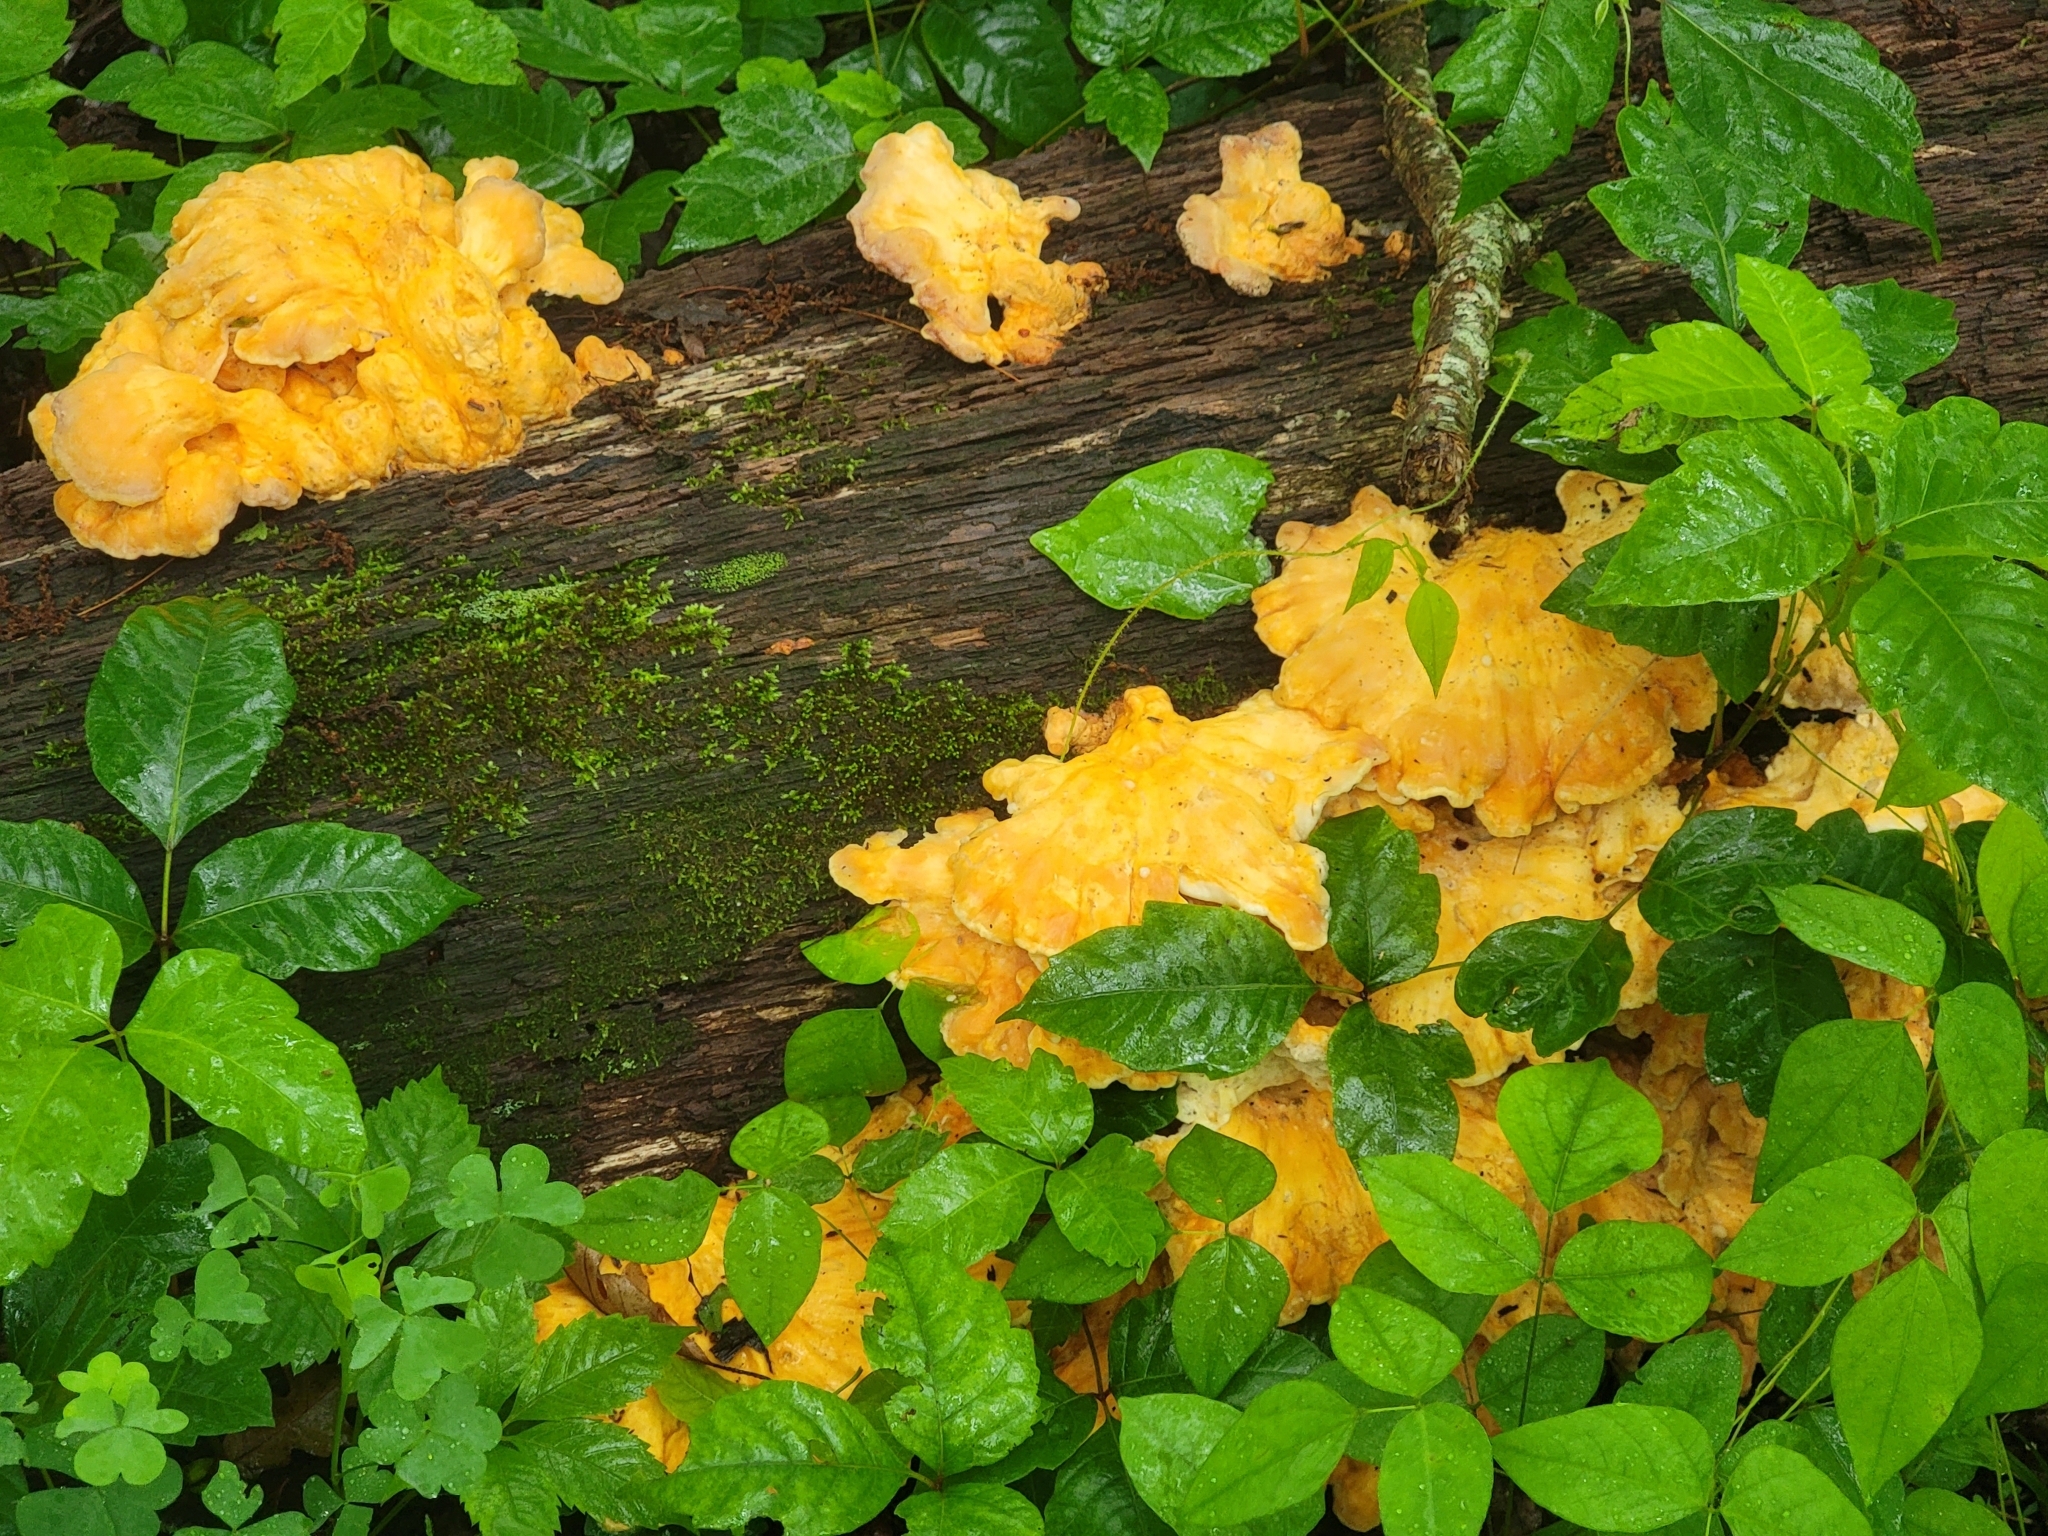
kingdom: Fungi
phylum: Basidiomycota
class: Agaricomycetes
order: Polyporales
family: Laetiporaceae
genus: Laetiporus
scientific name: Laetiporus sulphureus
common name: Chicken of the woods
